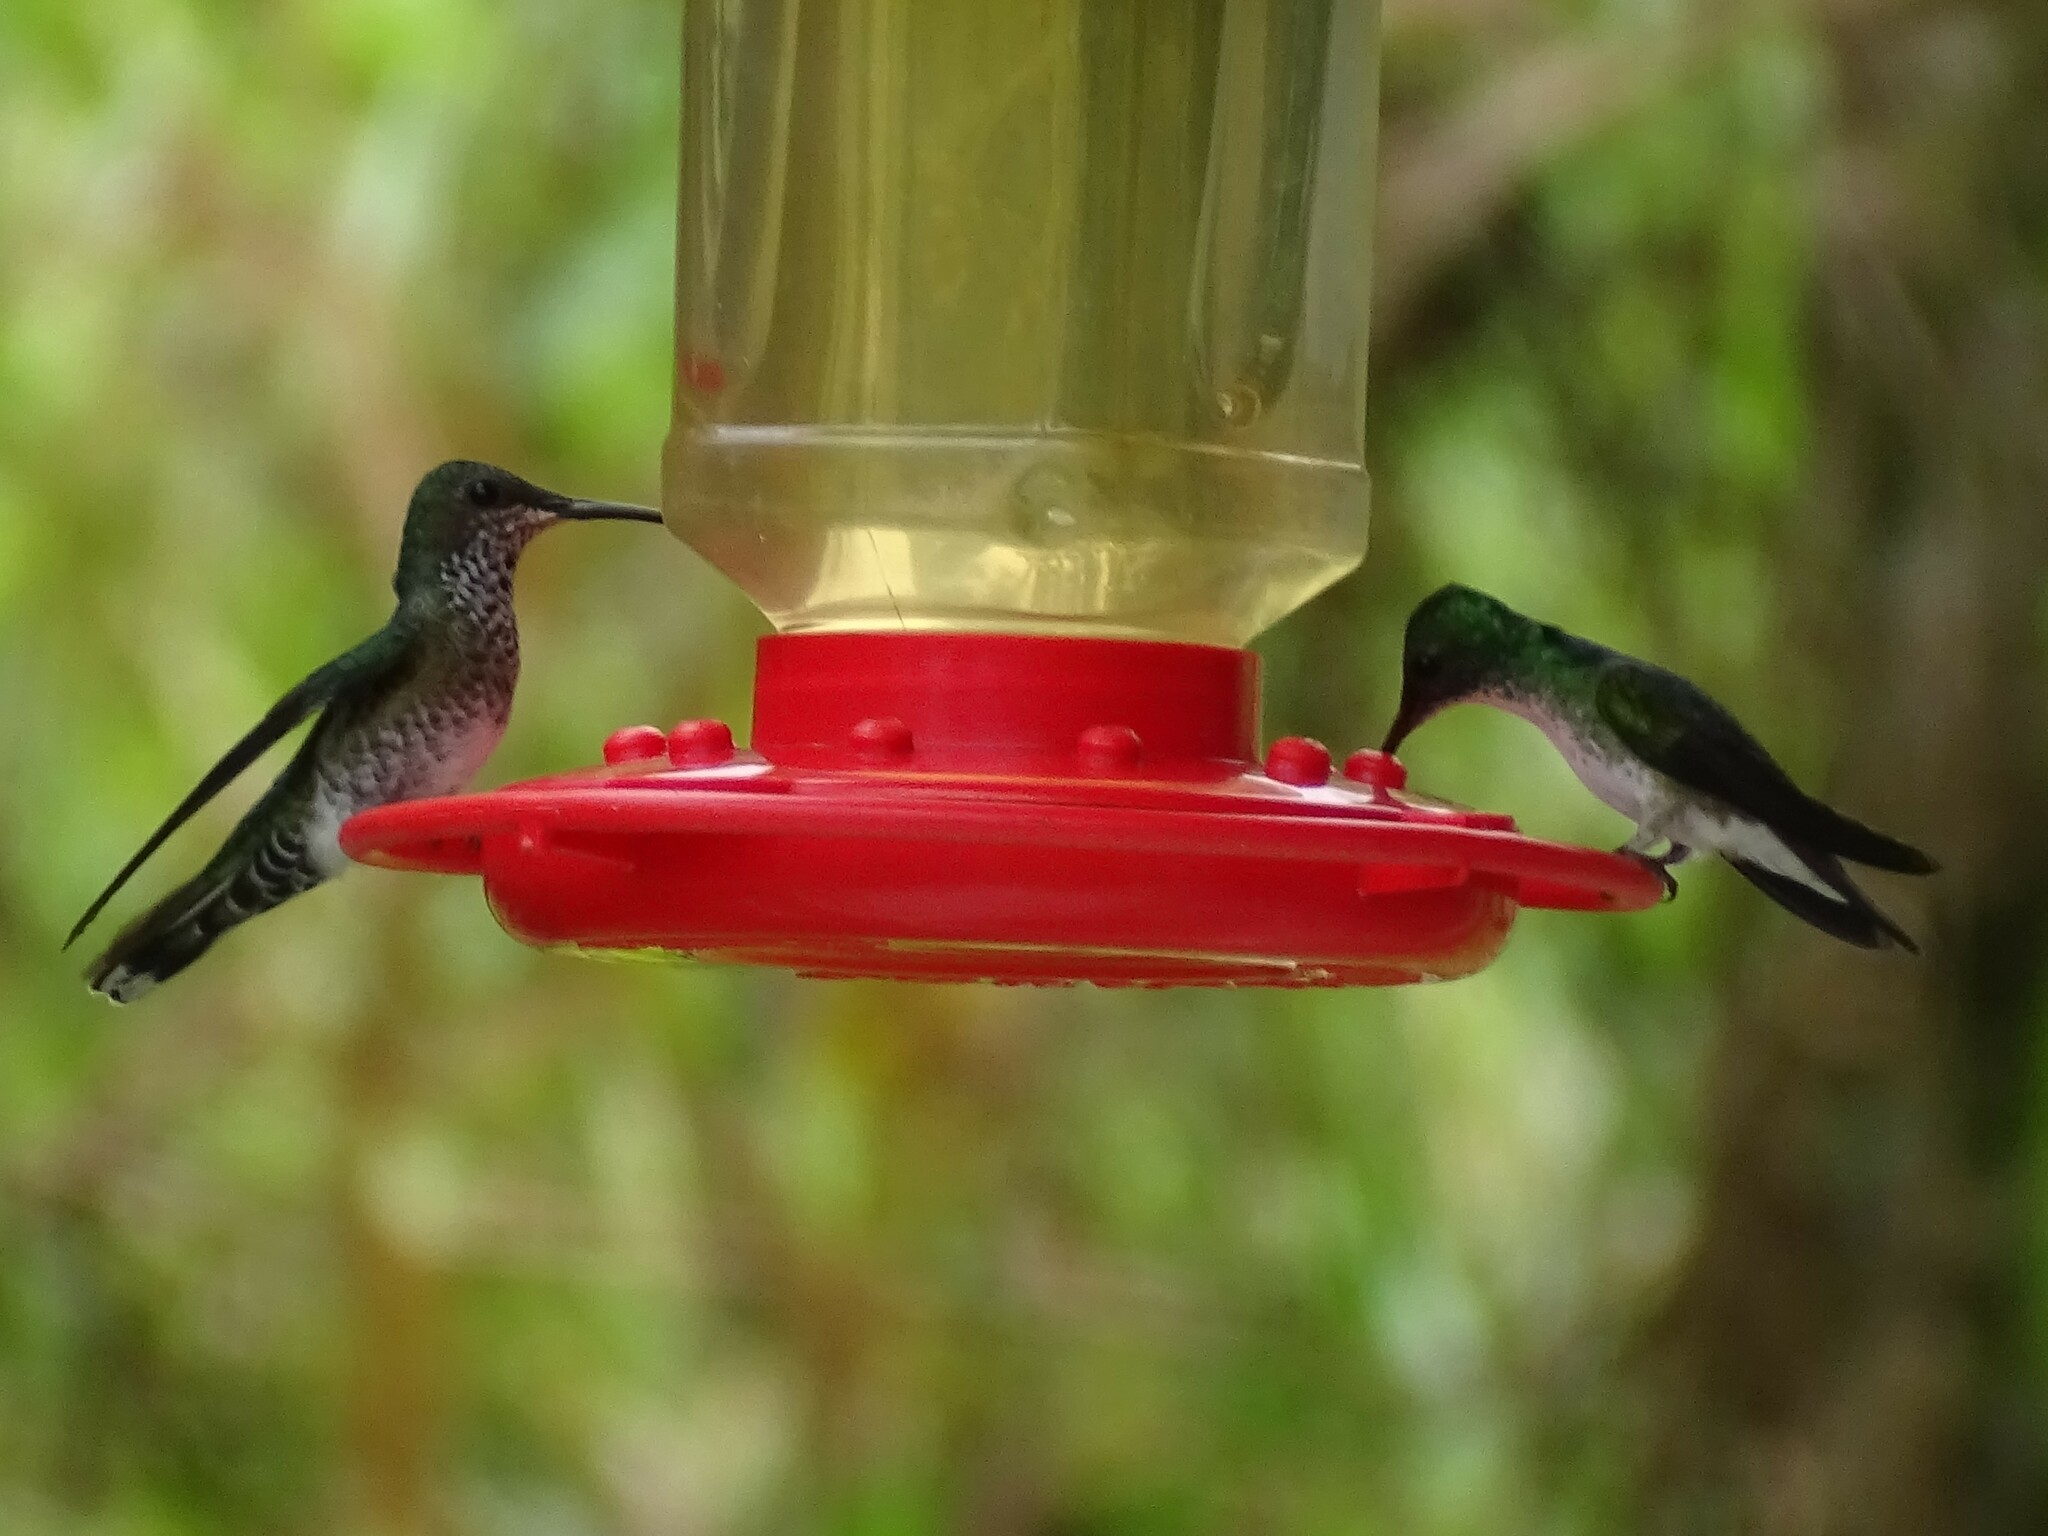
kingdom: Animalia
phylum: Chordata
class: Aves
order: Apodiformes
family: Trochilidae
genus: Florisuga
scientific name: Florisuga mellivora
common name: White-necked jacobin
